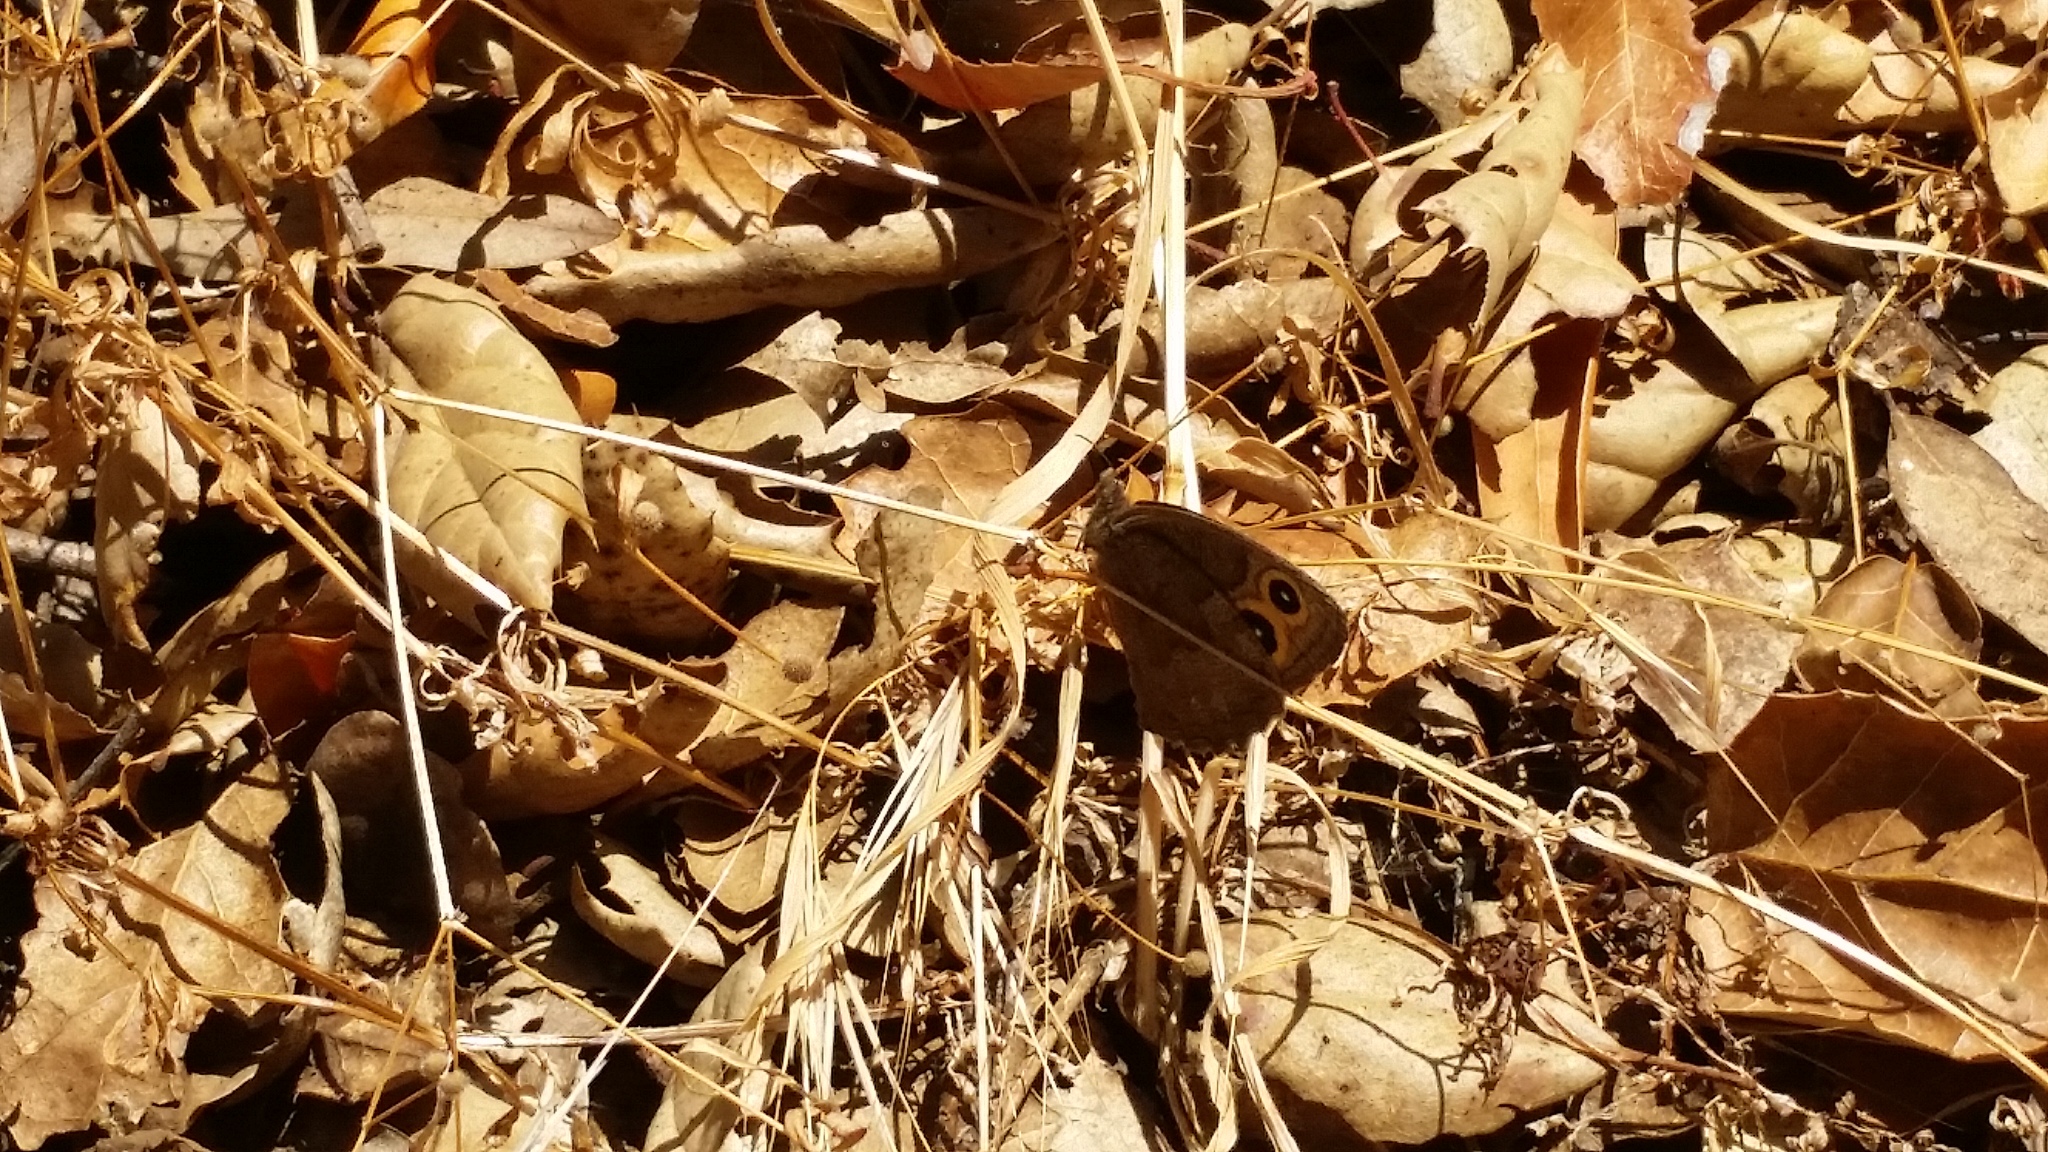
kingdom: Animalia
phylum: Arthropoda
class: Insecta
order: Lepidoptera
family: Nymphalidae
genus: Cercyonis
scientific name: Cercyonis pegala
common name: Common wood-nymph
